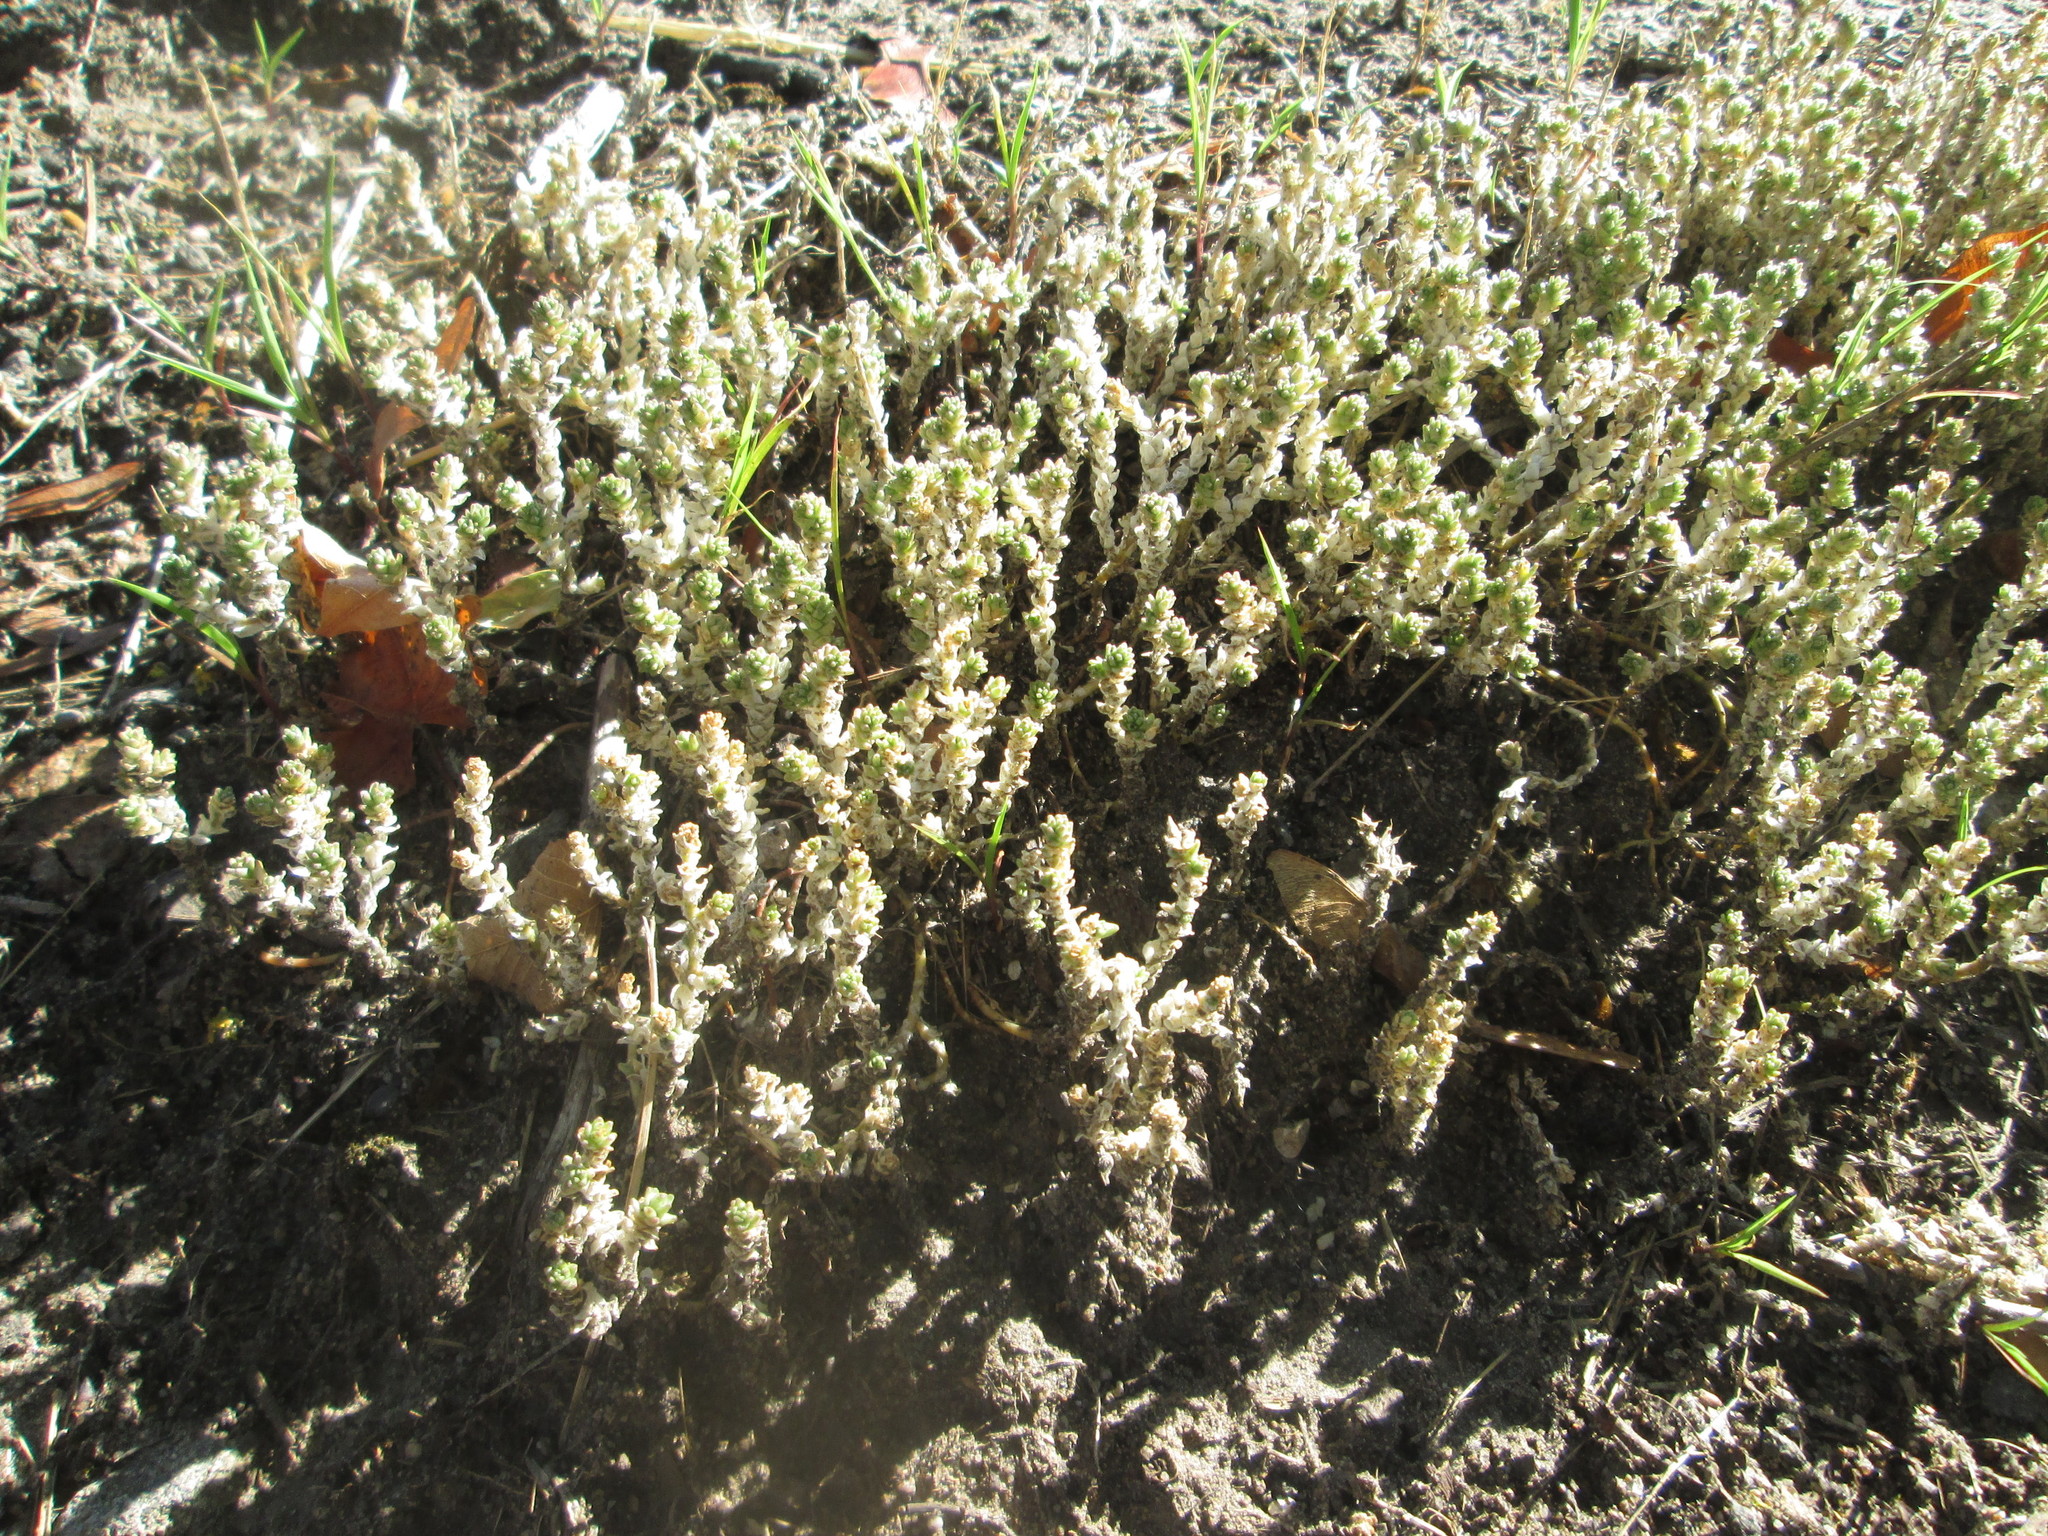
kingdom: Plantae
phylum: Tracheophyta
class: Magnoliopsida
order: Saxifragales
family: Crassulaceae
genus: Sedum
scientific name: Sedum acre
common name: Biting stonecrop
